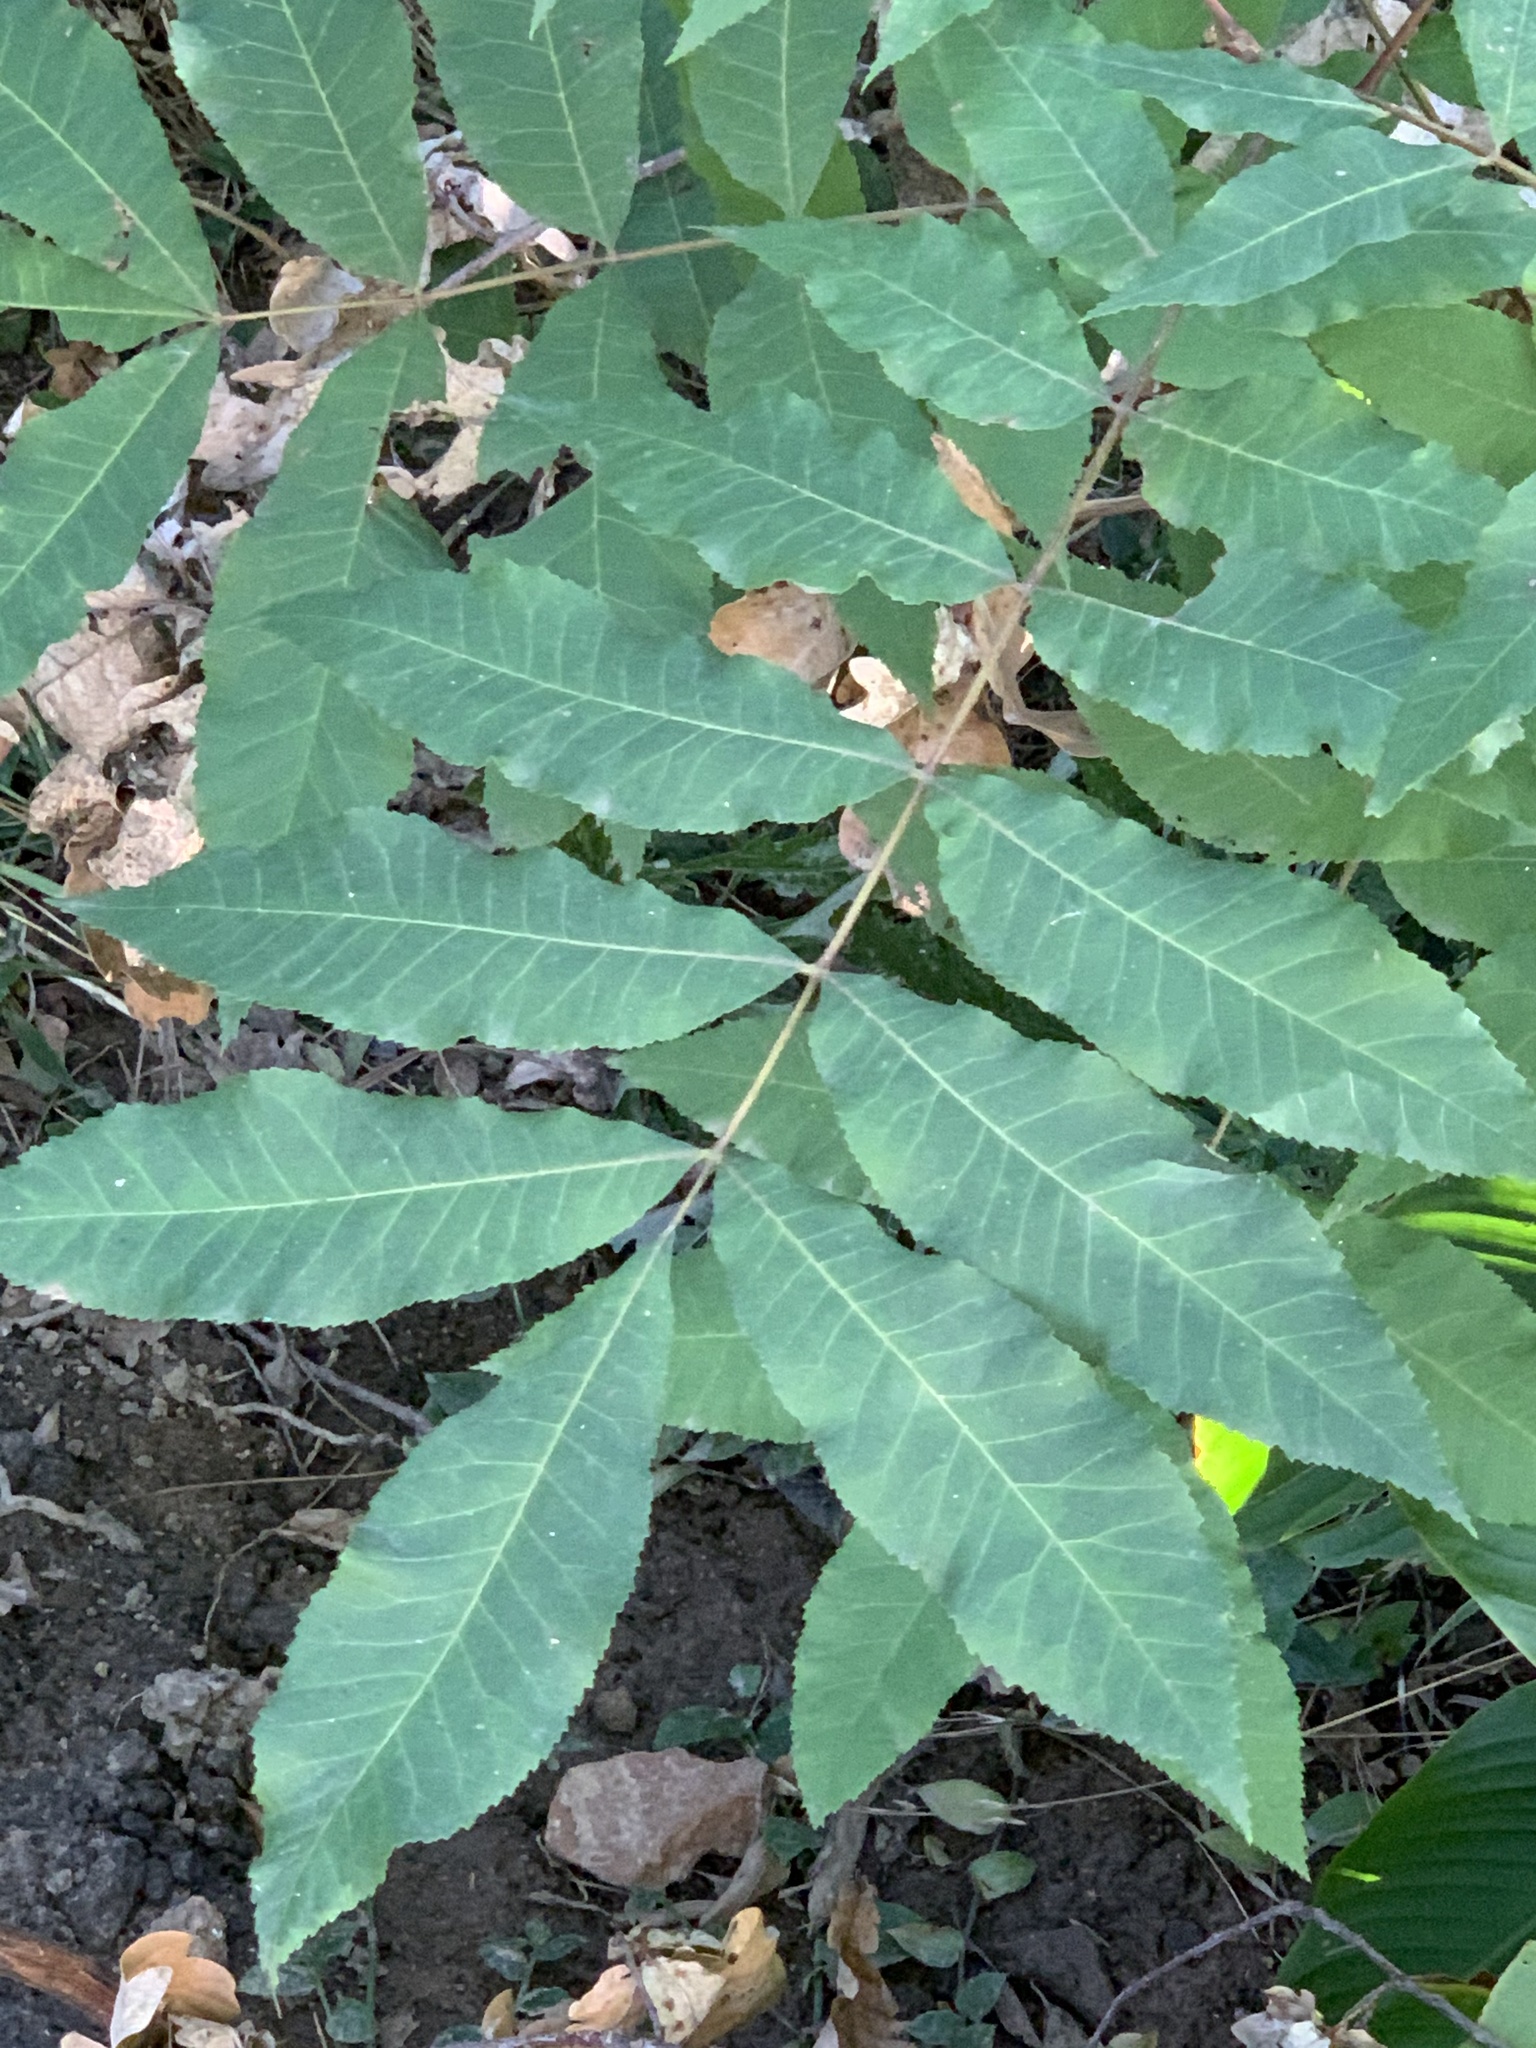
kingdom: Plantae
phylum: Tracheophyta
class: Magnoliopsida
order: Fagales
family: Juglandaceae
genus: Carya
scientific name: Carya illinoinensis
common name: Pecan
